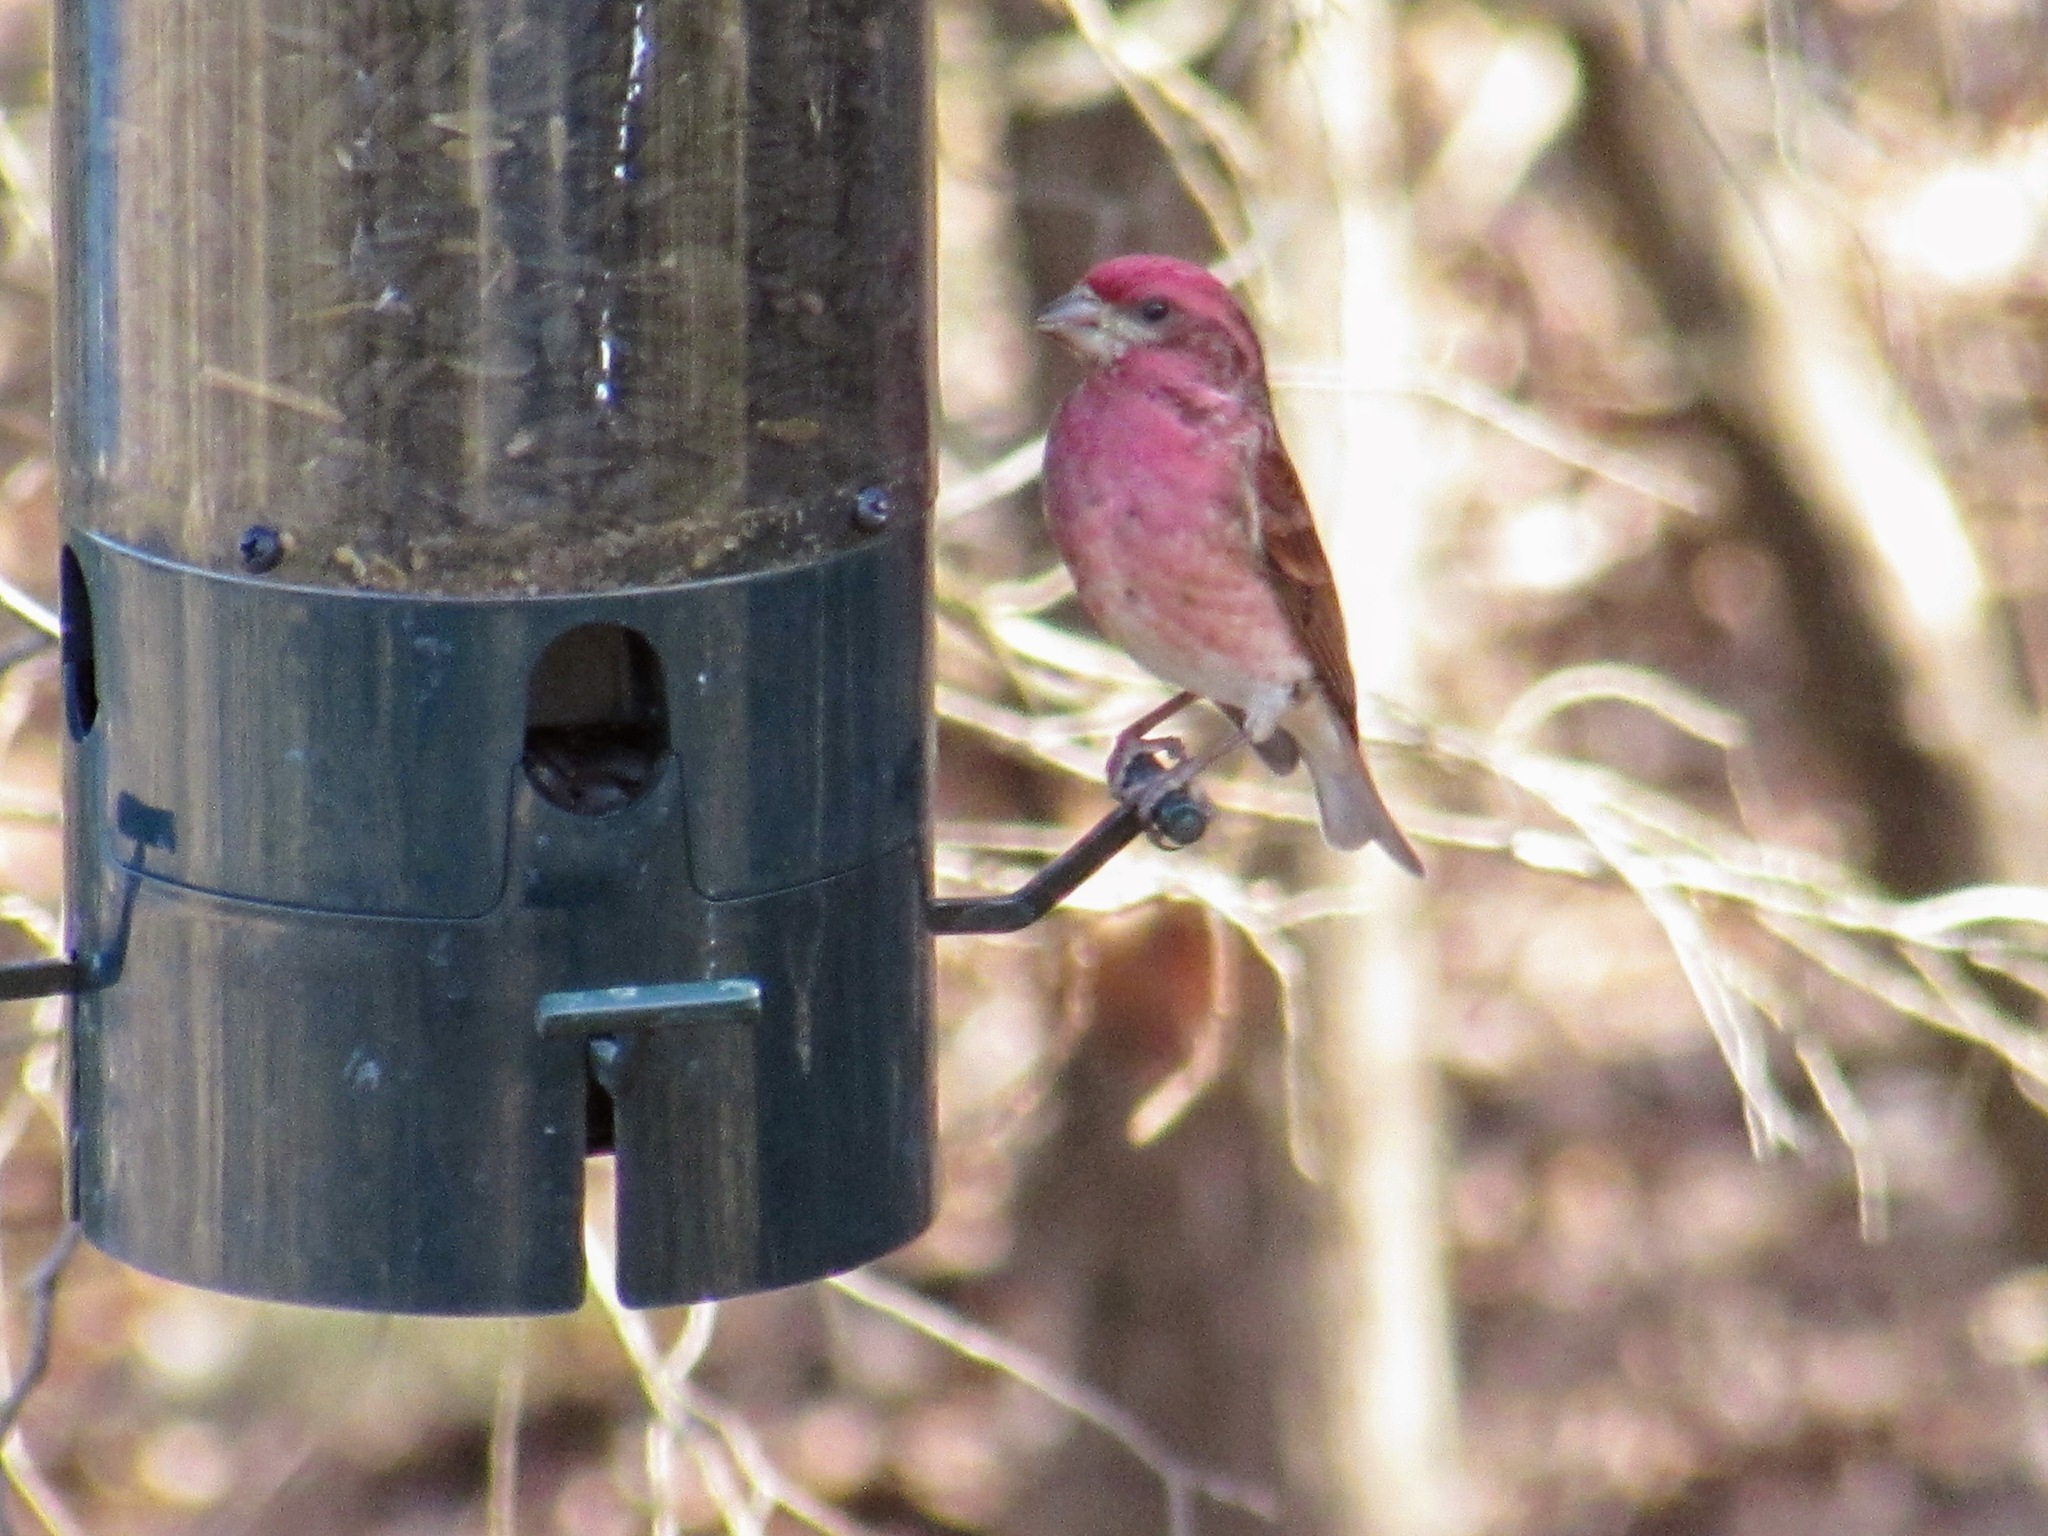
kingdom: Animalia
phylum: Chordata
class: Aves
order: Passeriformes
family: Fringillidae
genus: Haemorhous
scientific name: Haemorhous purpureus
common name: Purple finch
